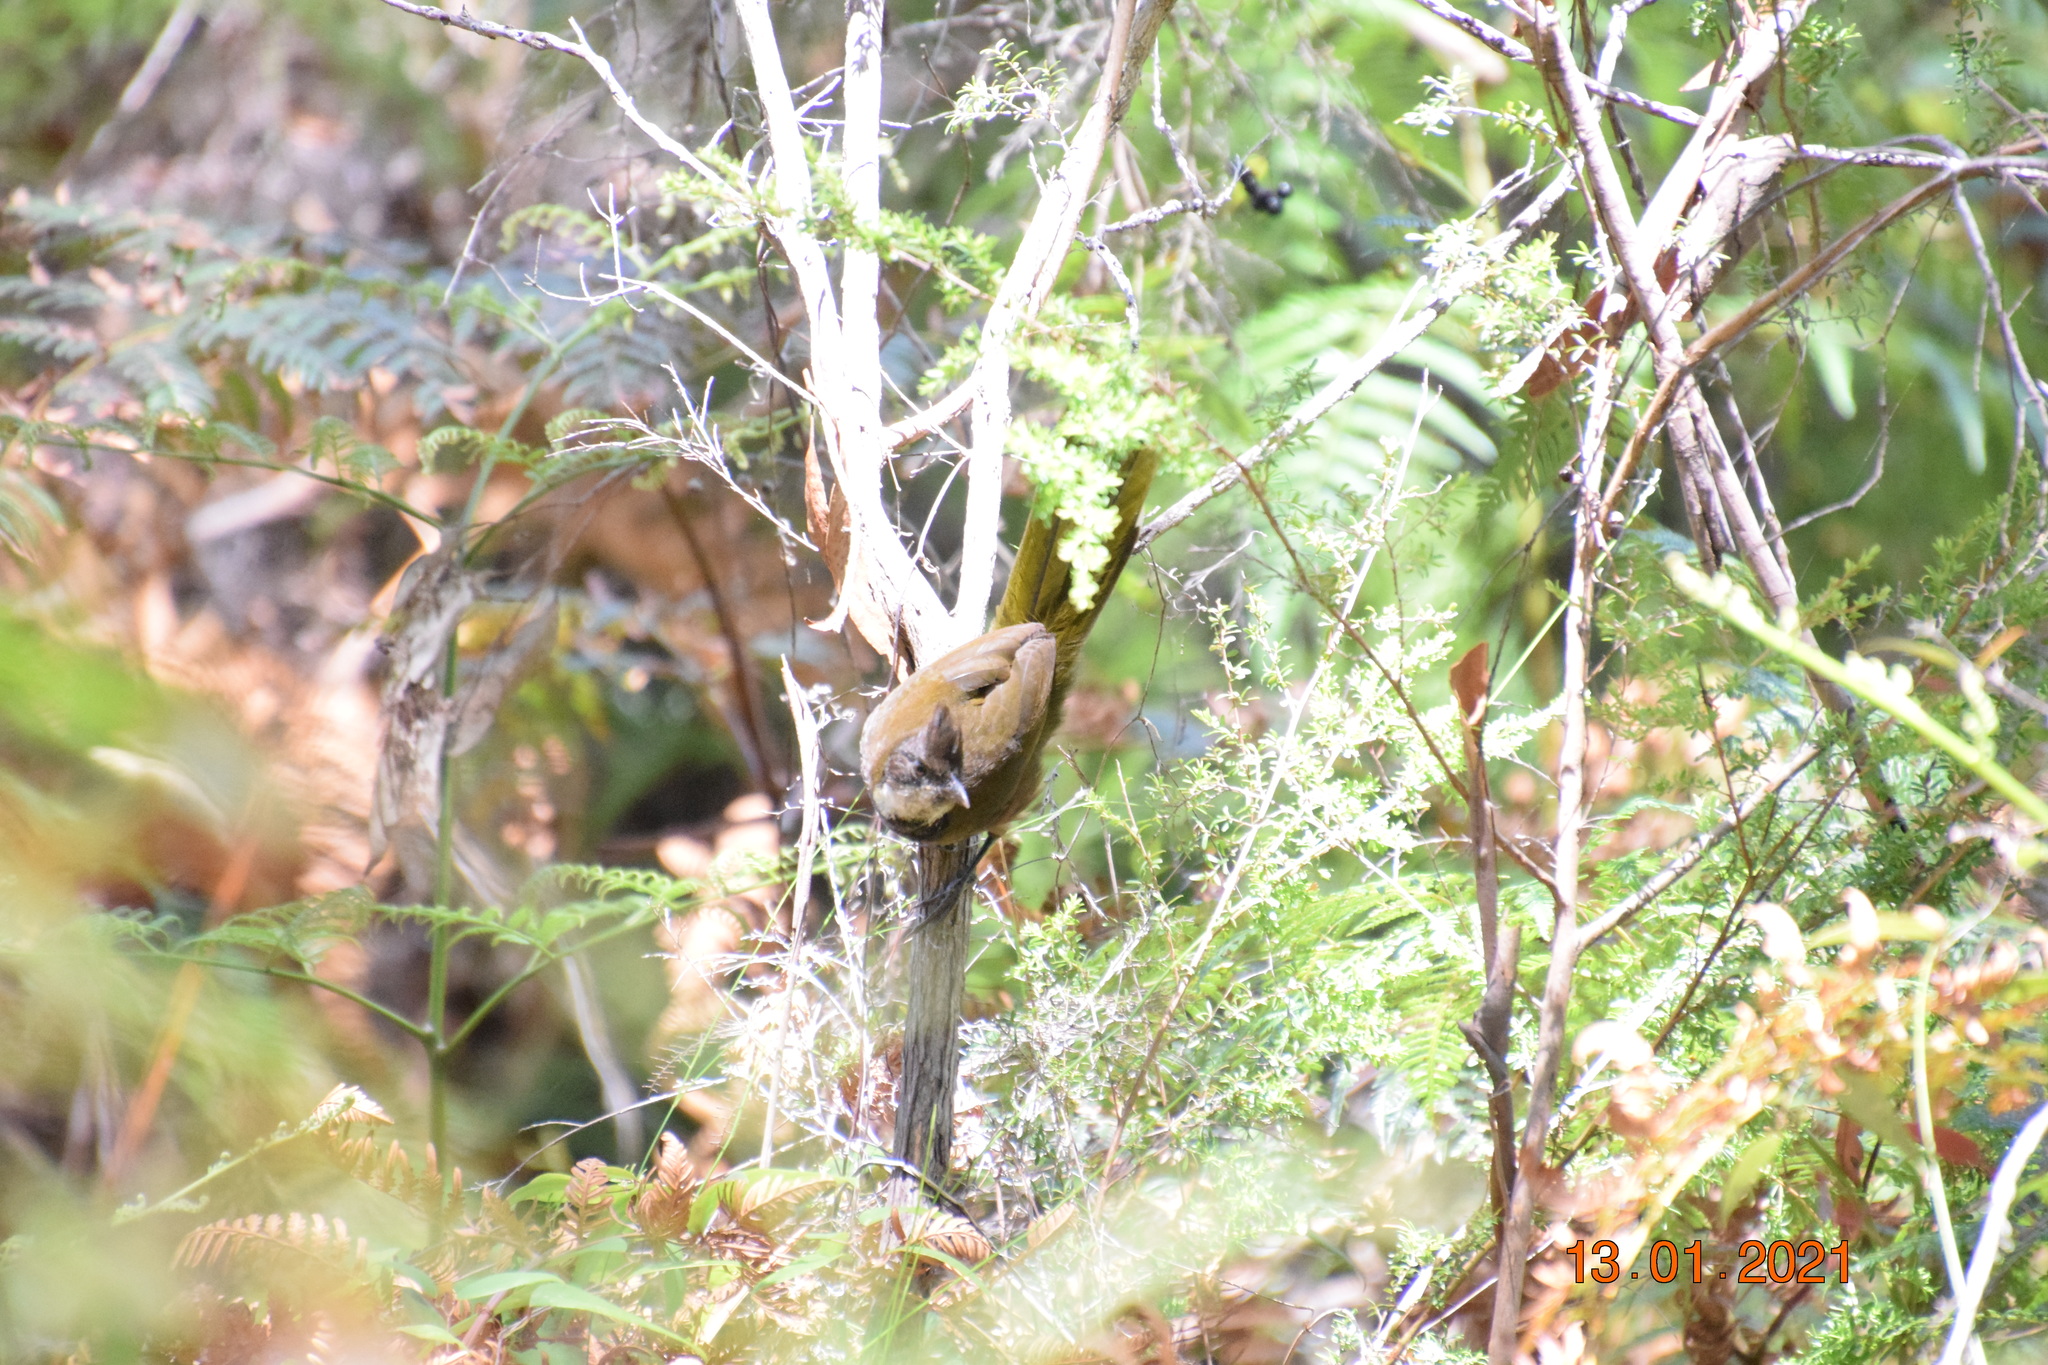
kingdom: Animalia
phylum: Chordata
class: Aves
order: Passeriformes
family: Psophodidae
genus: Psophodes
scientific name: Psophodes olivaceus
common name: Eastern whipbird
